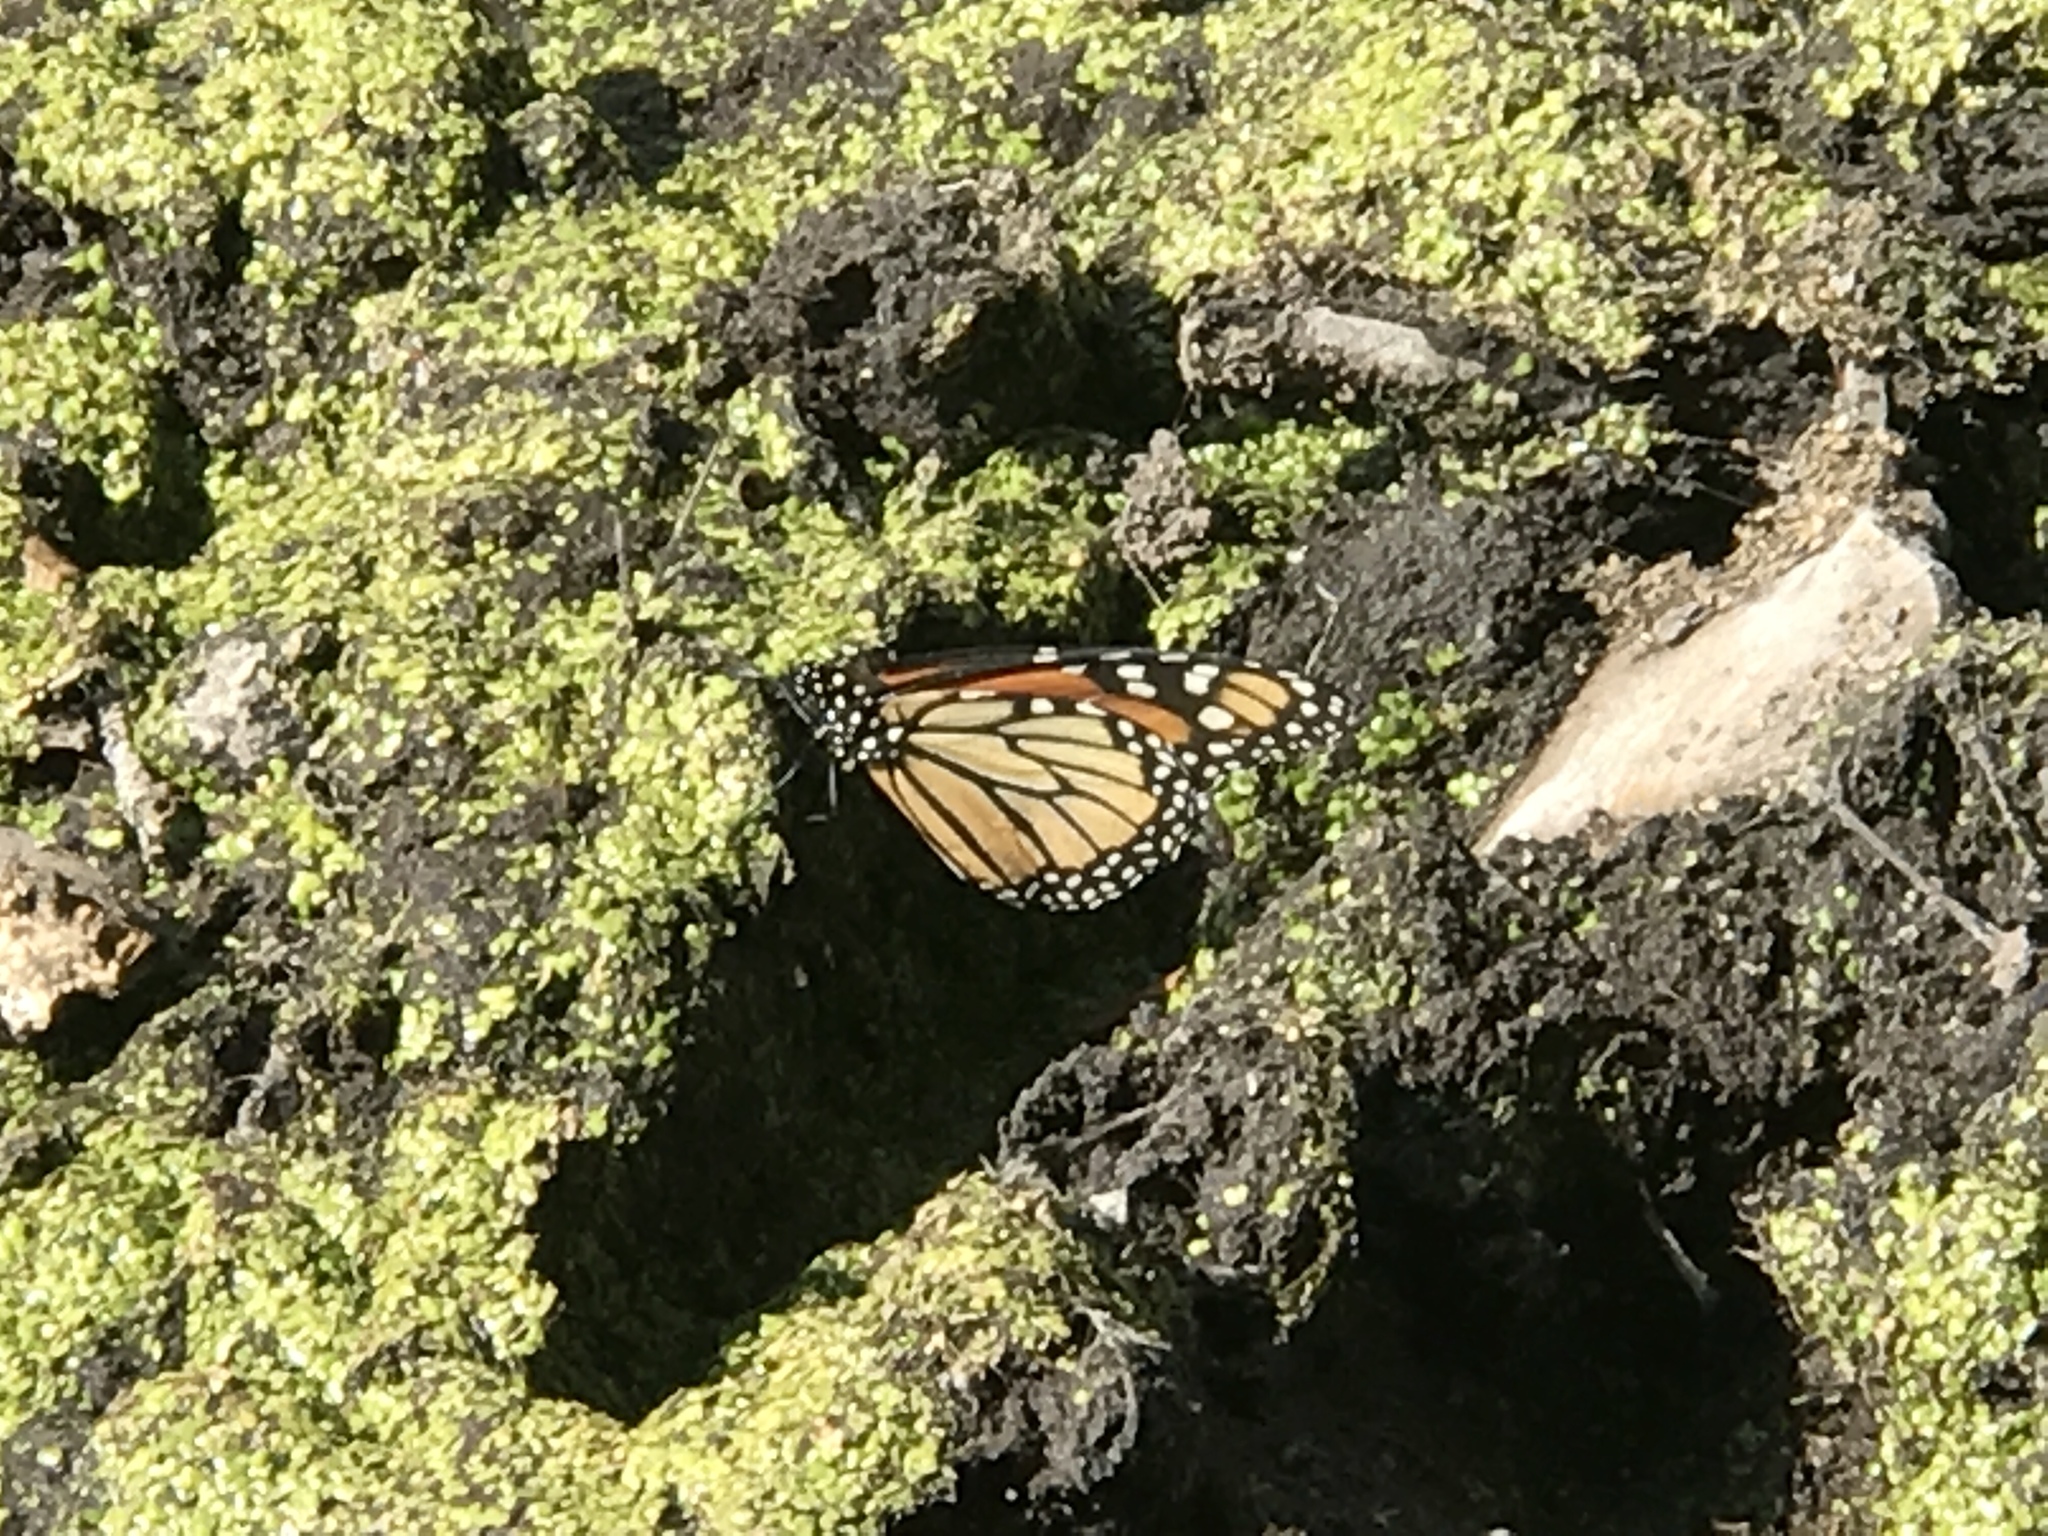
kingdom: Animalia
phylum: Arthropoda
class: Insecta
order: Lepidoptera
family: Nymphalidae
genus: Danaus
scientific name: Danaus plexippus
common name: Monarch
